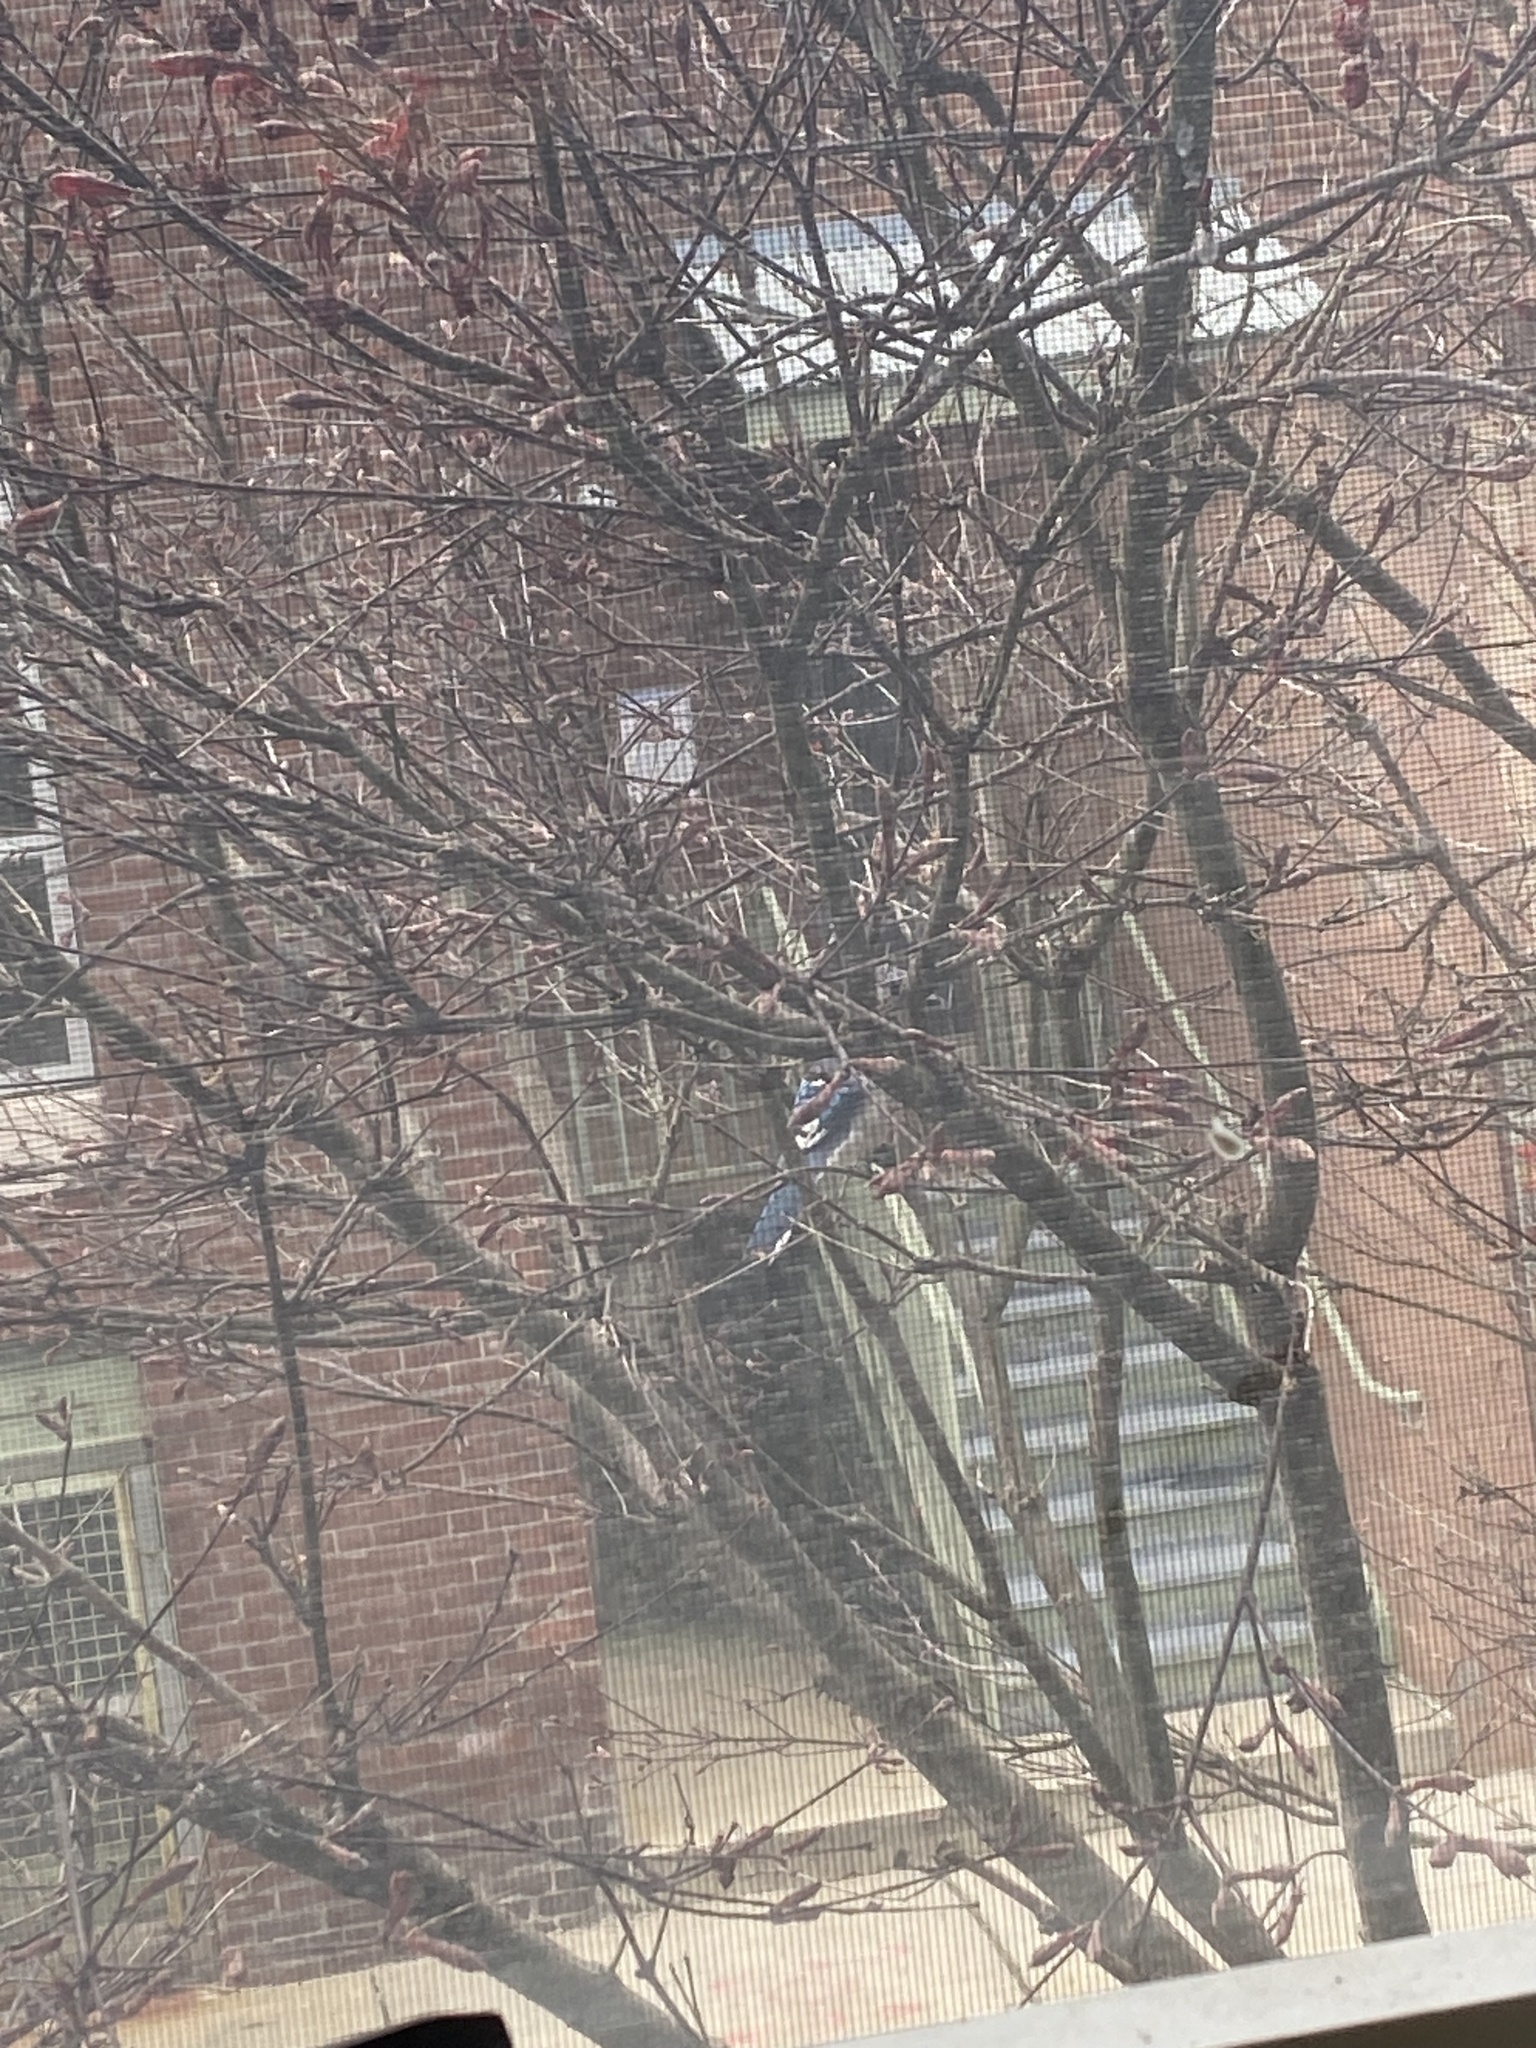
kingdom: Animalia
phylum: Chordata
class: Aves
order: Passeriformes
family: Corvidae
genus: Cyanocitta
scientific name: Cyanocitta cristata
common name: Blue jay
